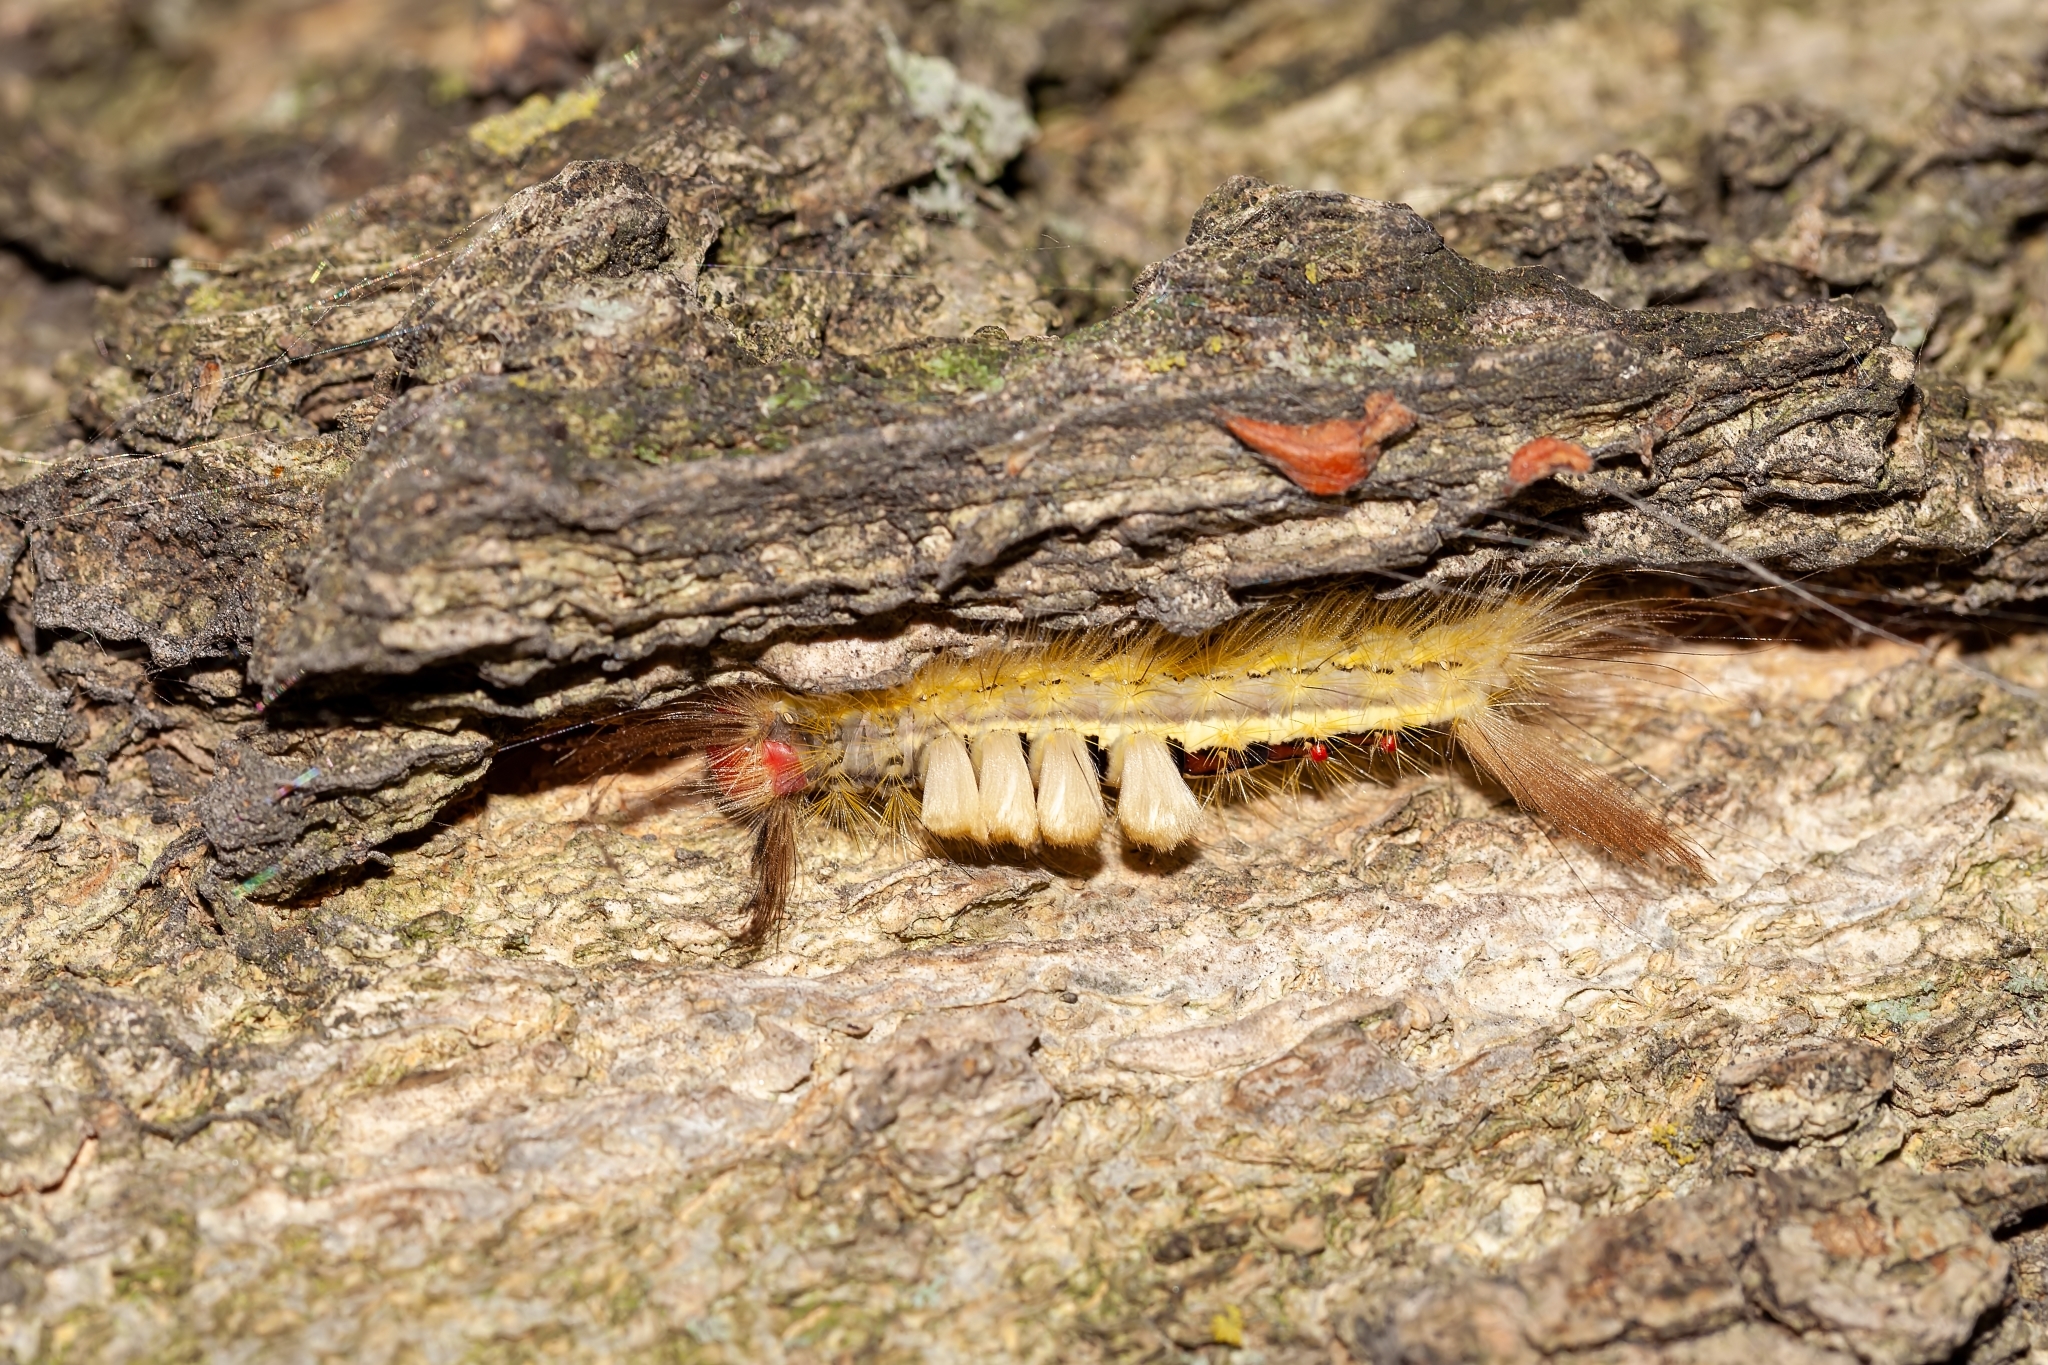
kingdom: Animalia
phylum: Arthropoda
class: Insecta
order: Lepidoptera
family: Erebidae
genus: Orgyia
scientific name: Orgyia leucostigma
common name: White-marked tussock moth
